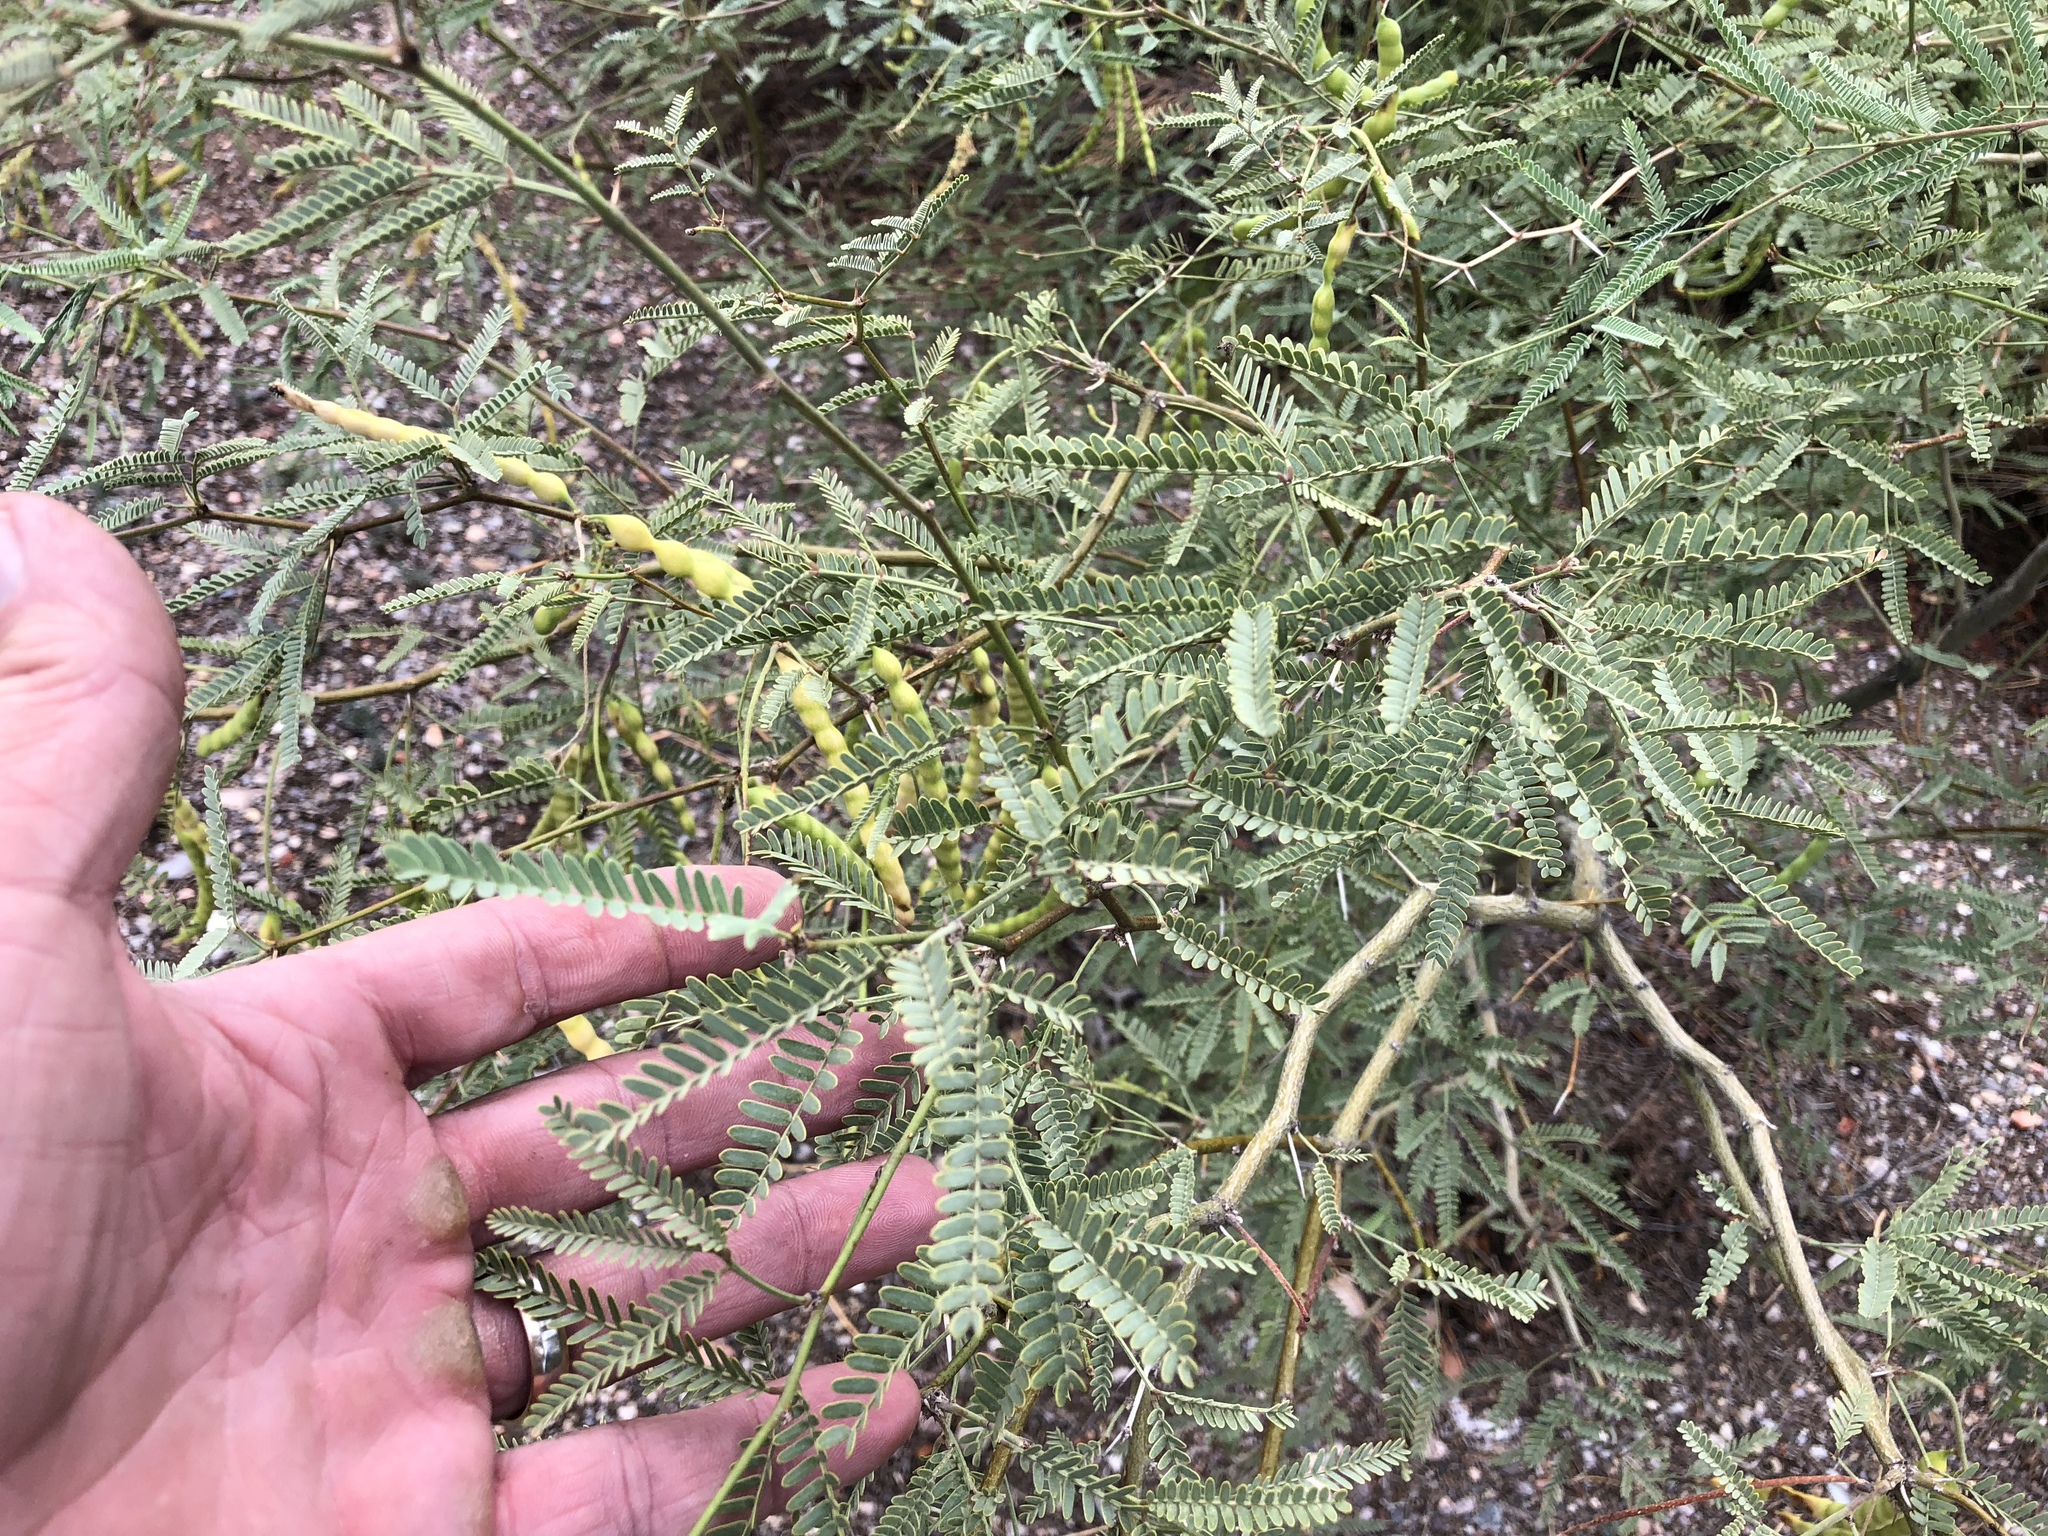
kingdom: Plantae
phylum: Tracheophyta
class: Magnoliopsida
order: Fabales
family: Fabaceae
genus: Prosopis
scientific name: Prosopis velutina
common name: Velvet mesquite
